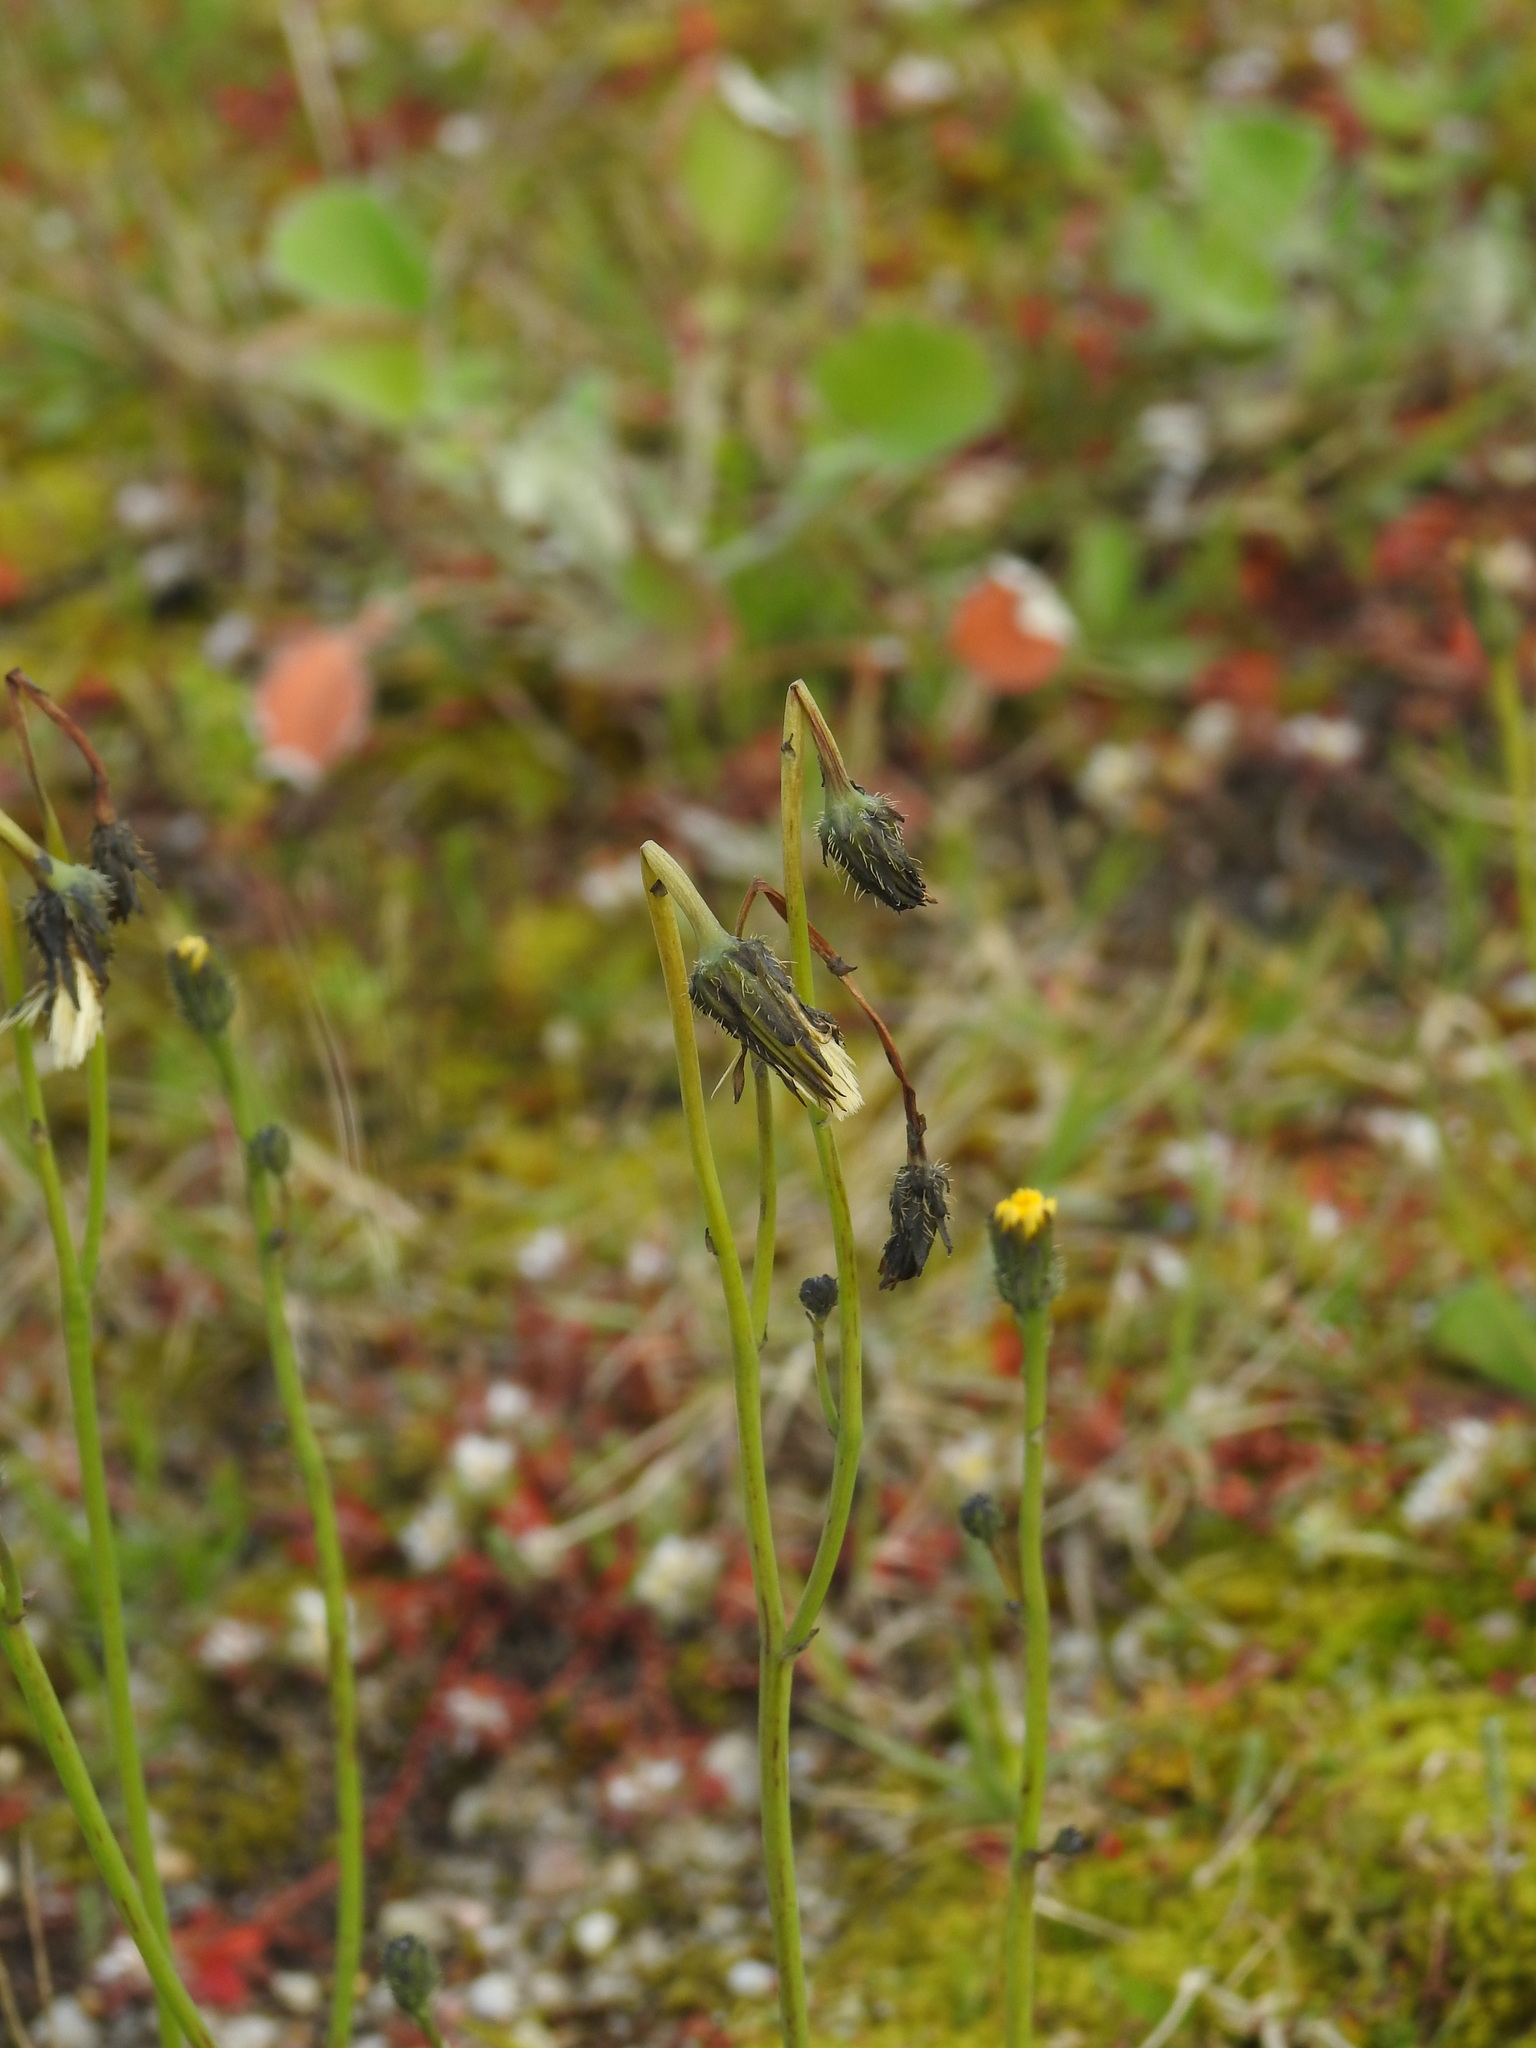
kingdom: Plantae
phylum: Tracheophyta
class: Magnoliopsida
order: Asterales
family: Asteraceae
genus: Hypochaeris
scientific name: Hypochaeris glabra
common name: Smooth catsear
